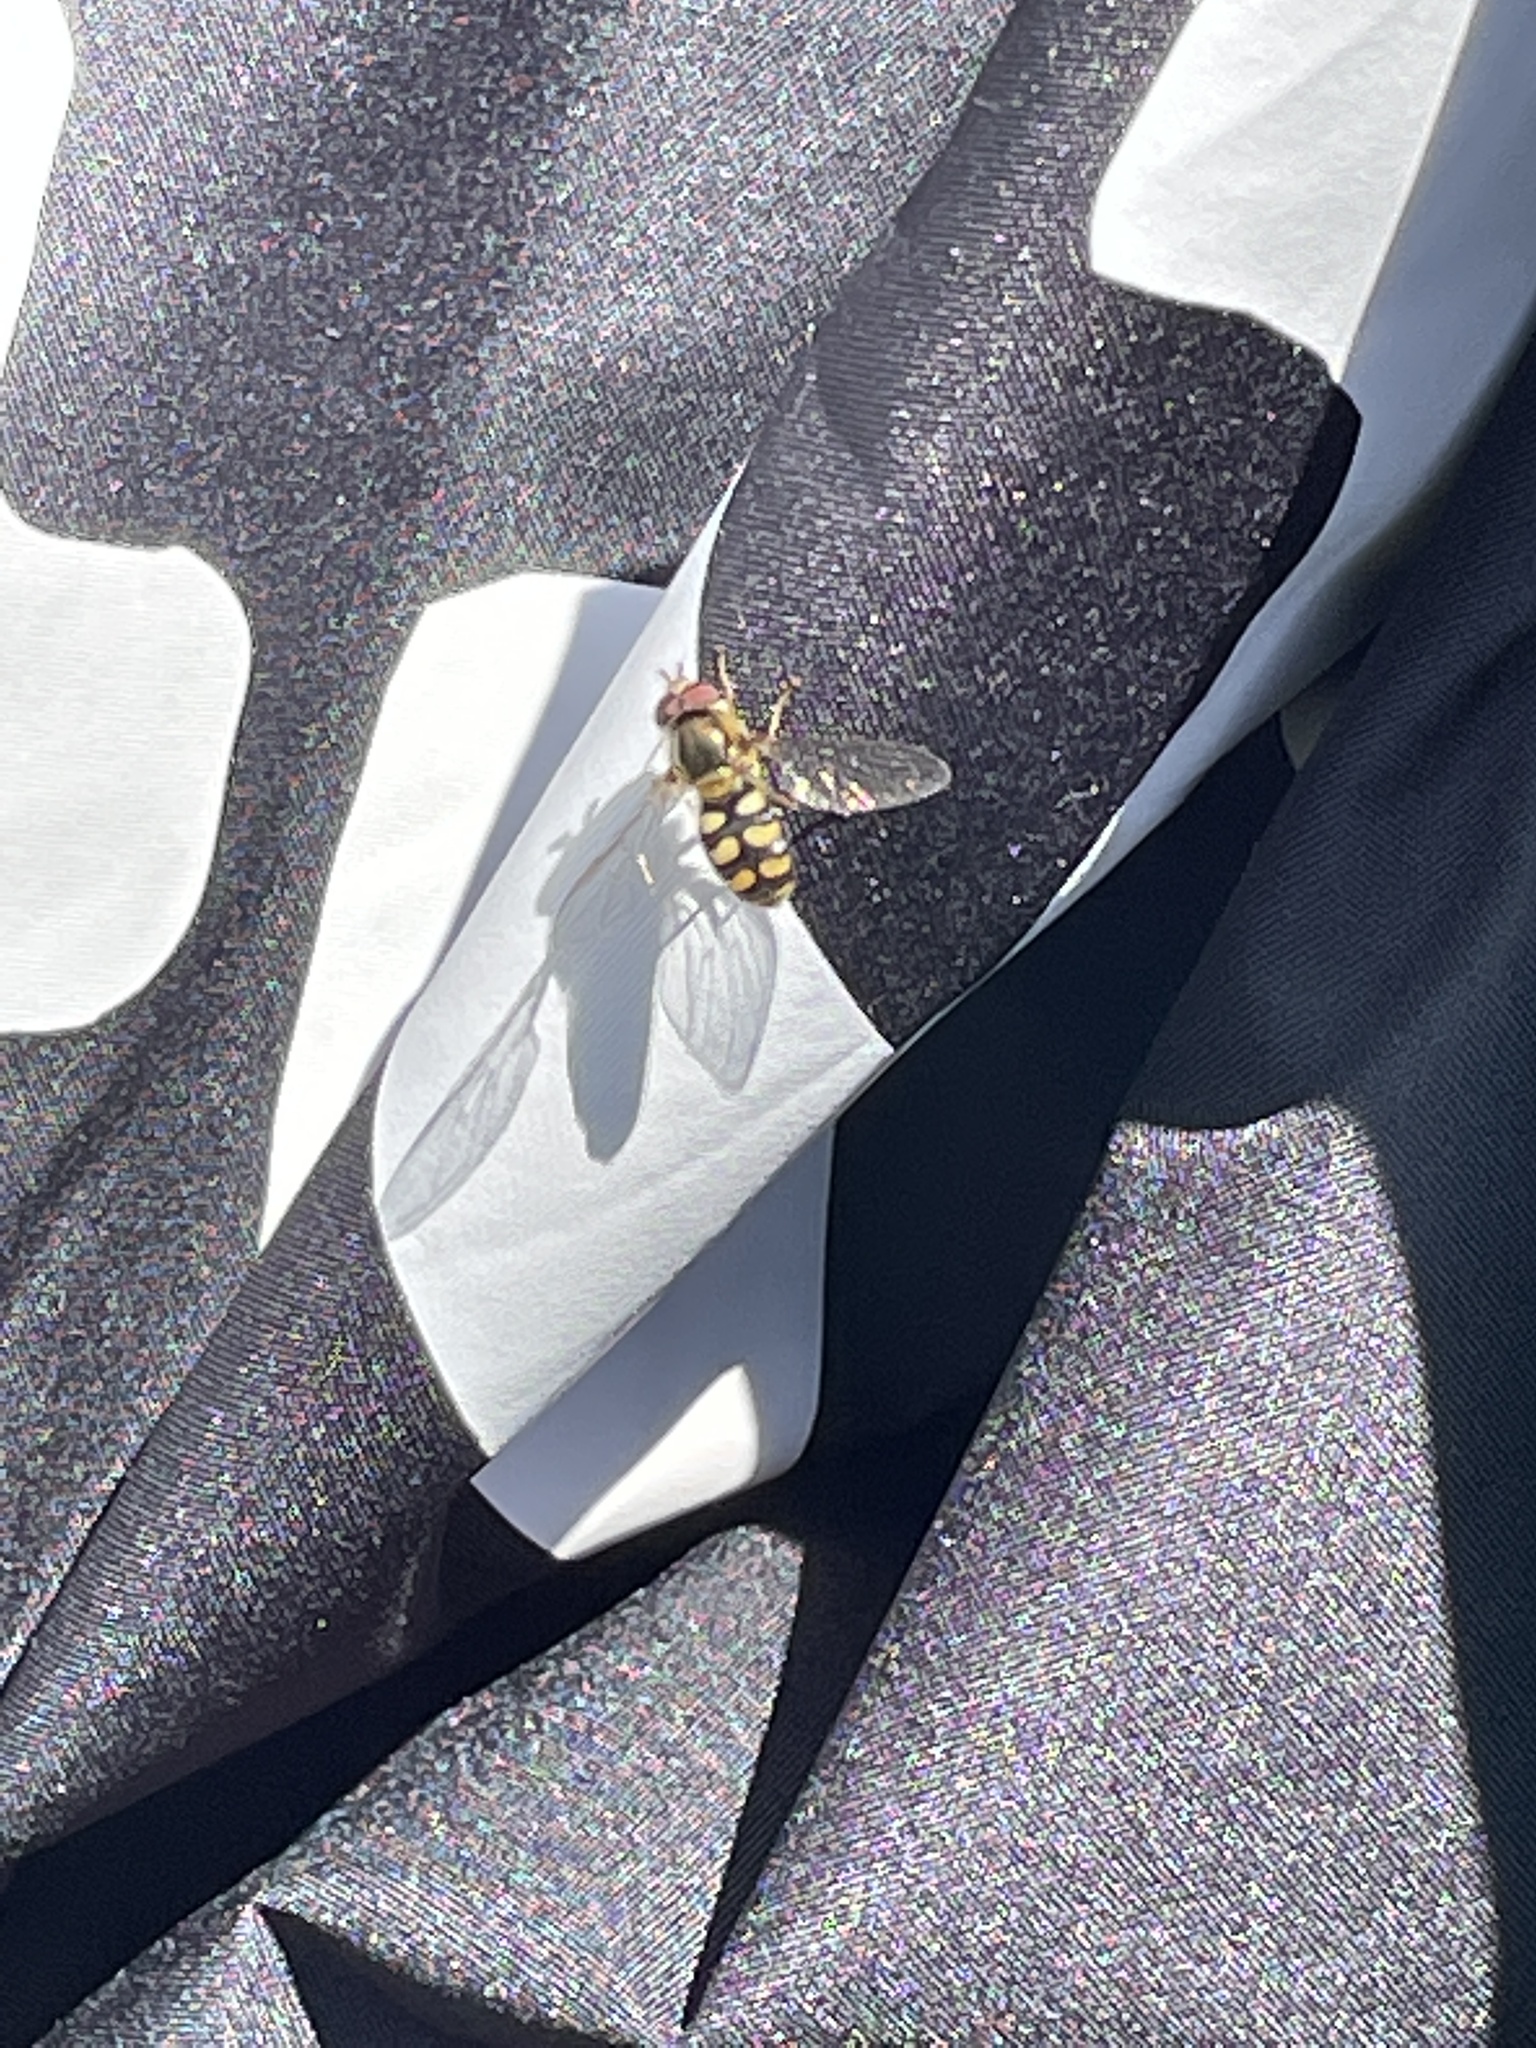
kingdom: Animalia
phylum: Arthropoda
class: Insecta
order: Diptera
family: Syrphidae
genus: Eupeodes
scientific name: Eupeodes corollae
